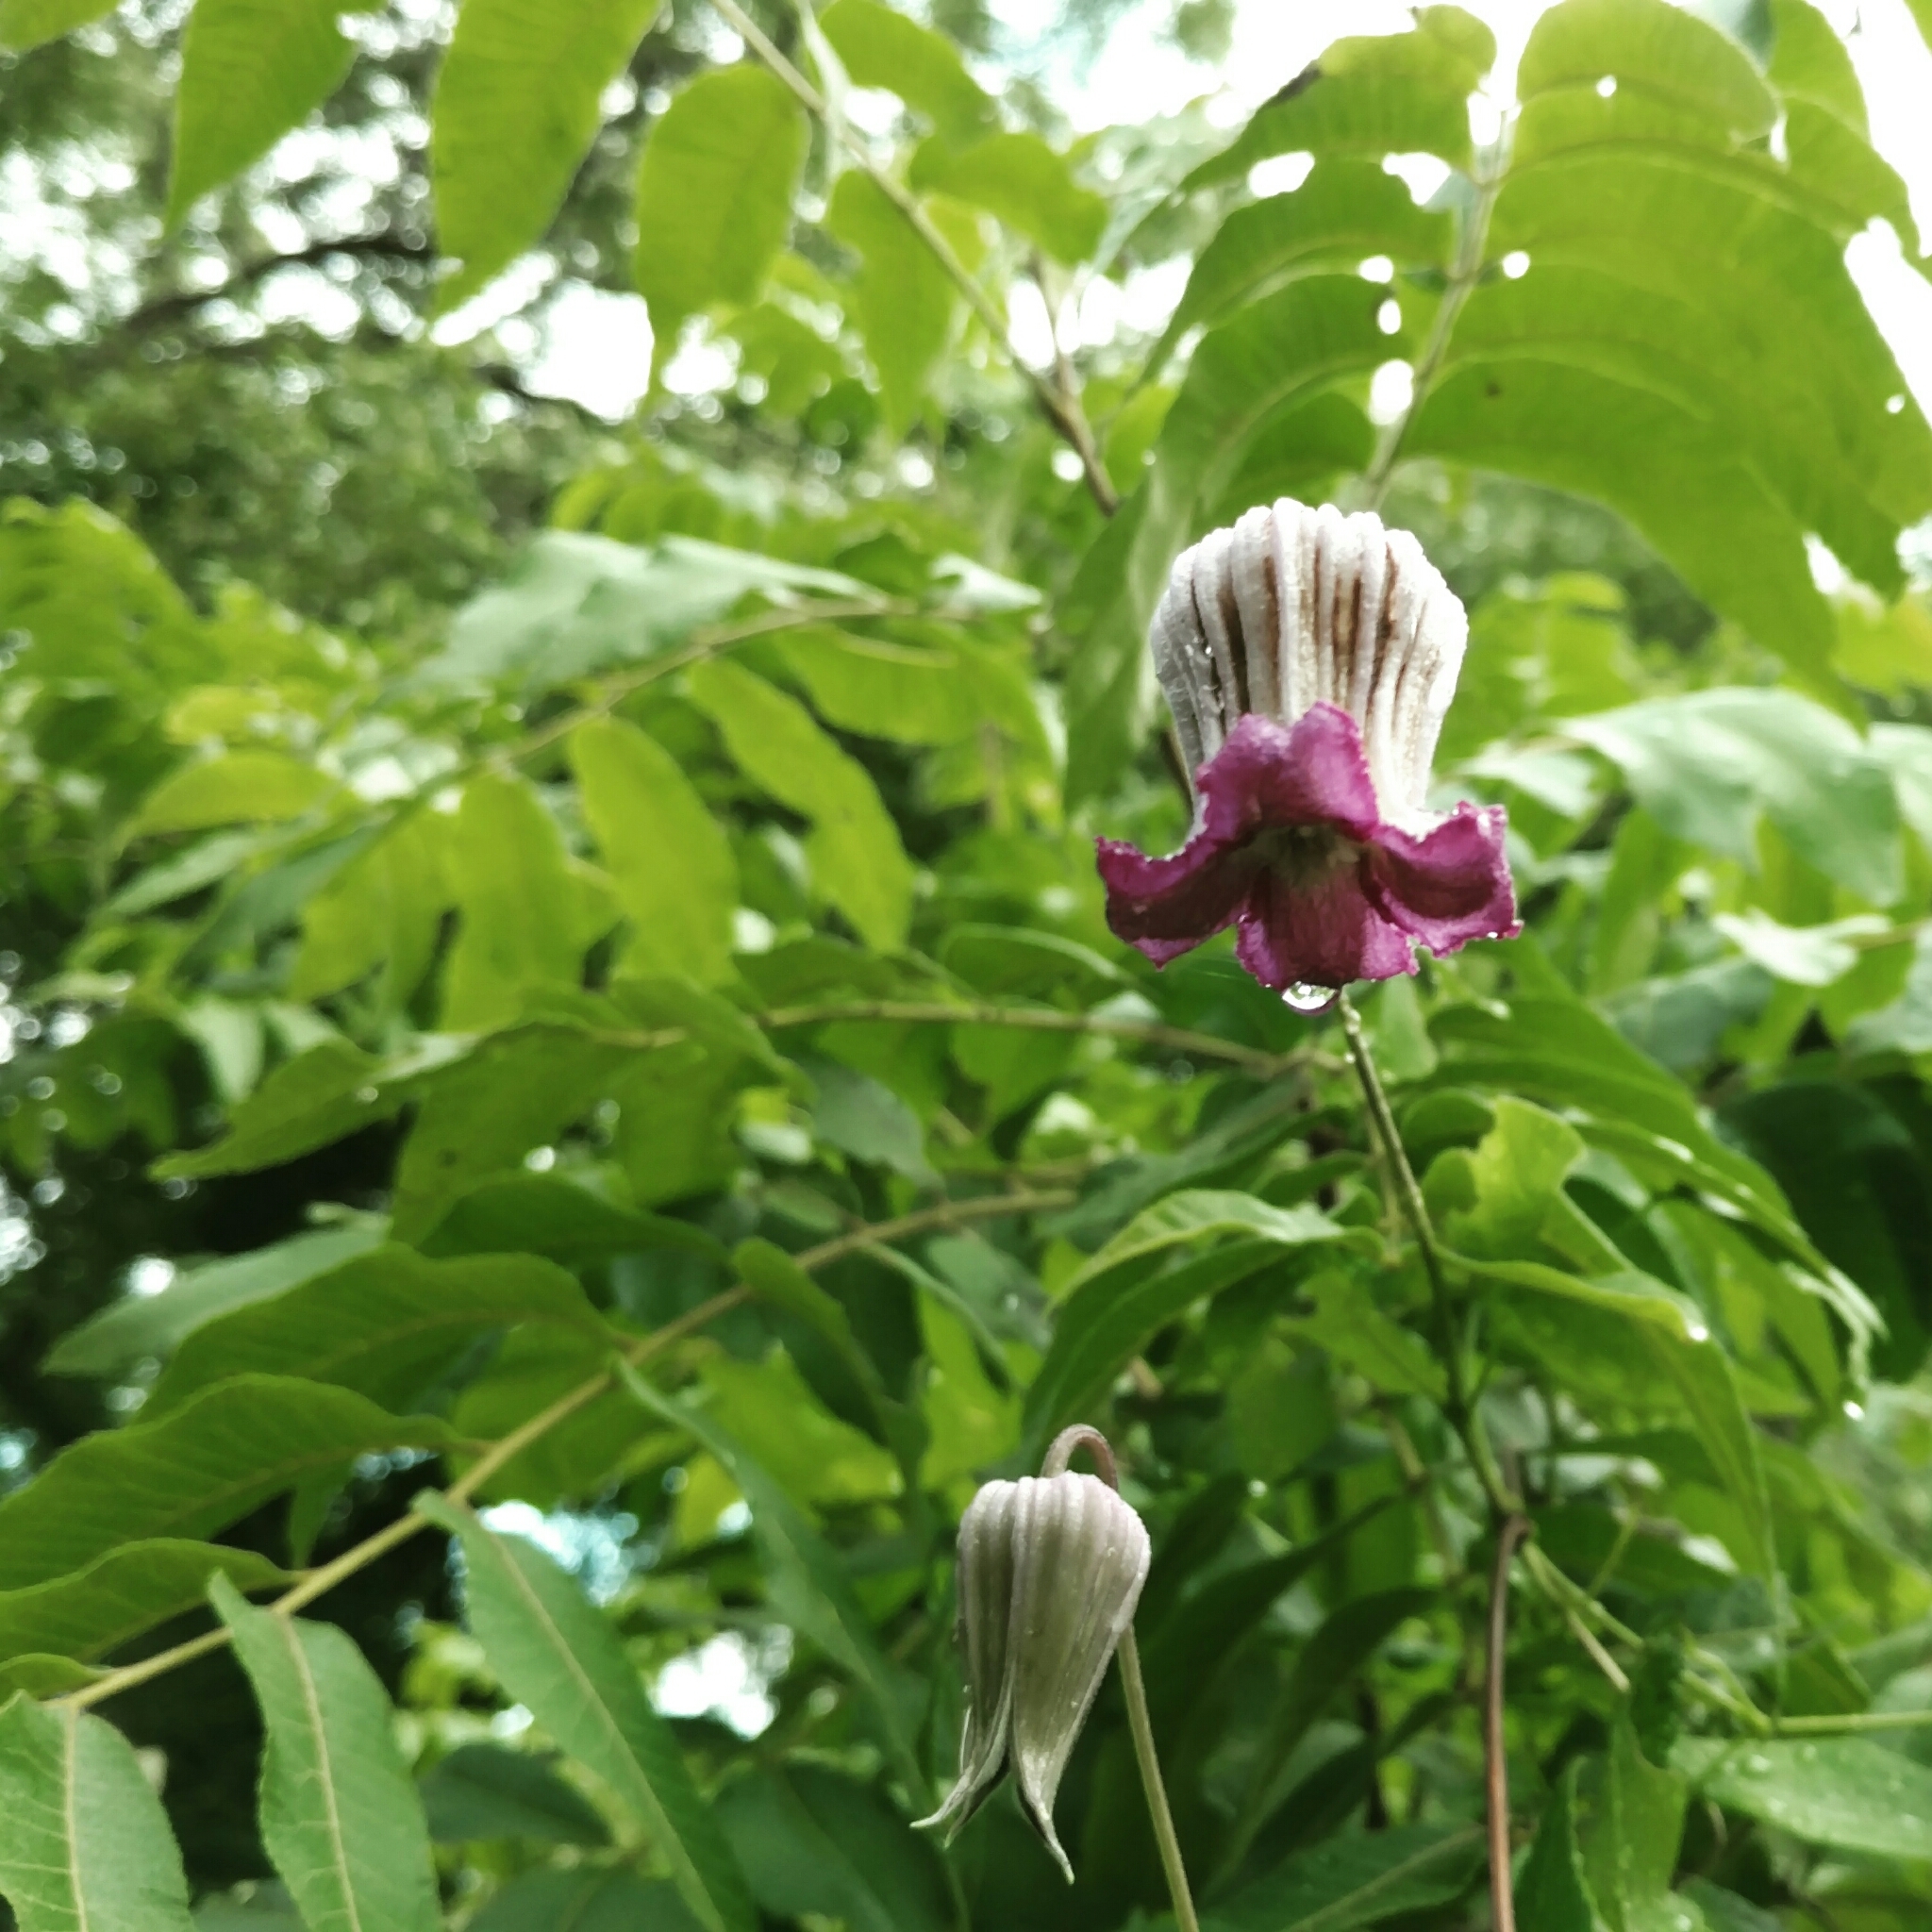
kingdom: Plantae
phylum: Tracheophyta
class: Magnoliopsida
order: Ranunculales
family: Ranunculaceae
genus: Clematis
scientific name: Clematis pitcheri
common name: Bellflower clematis
